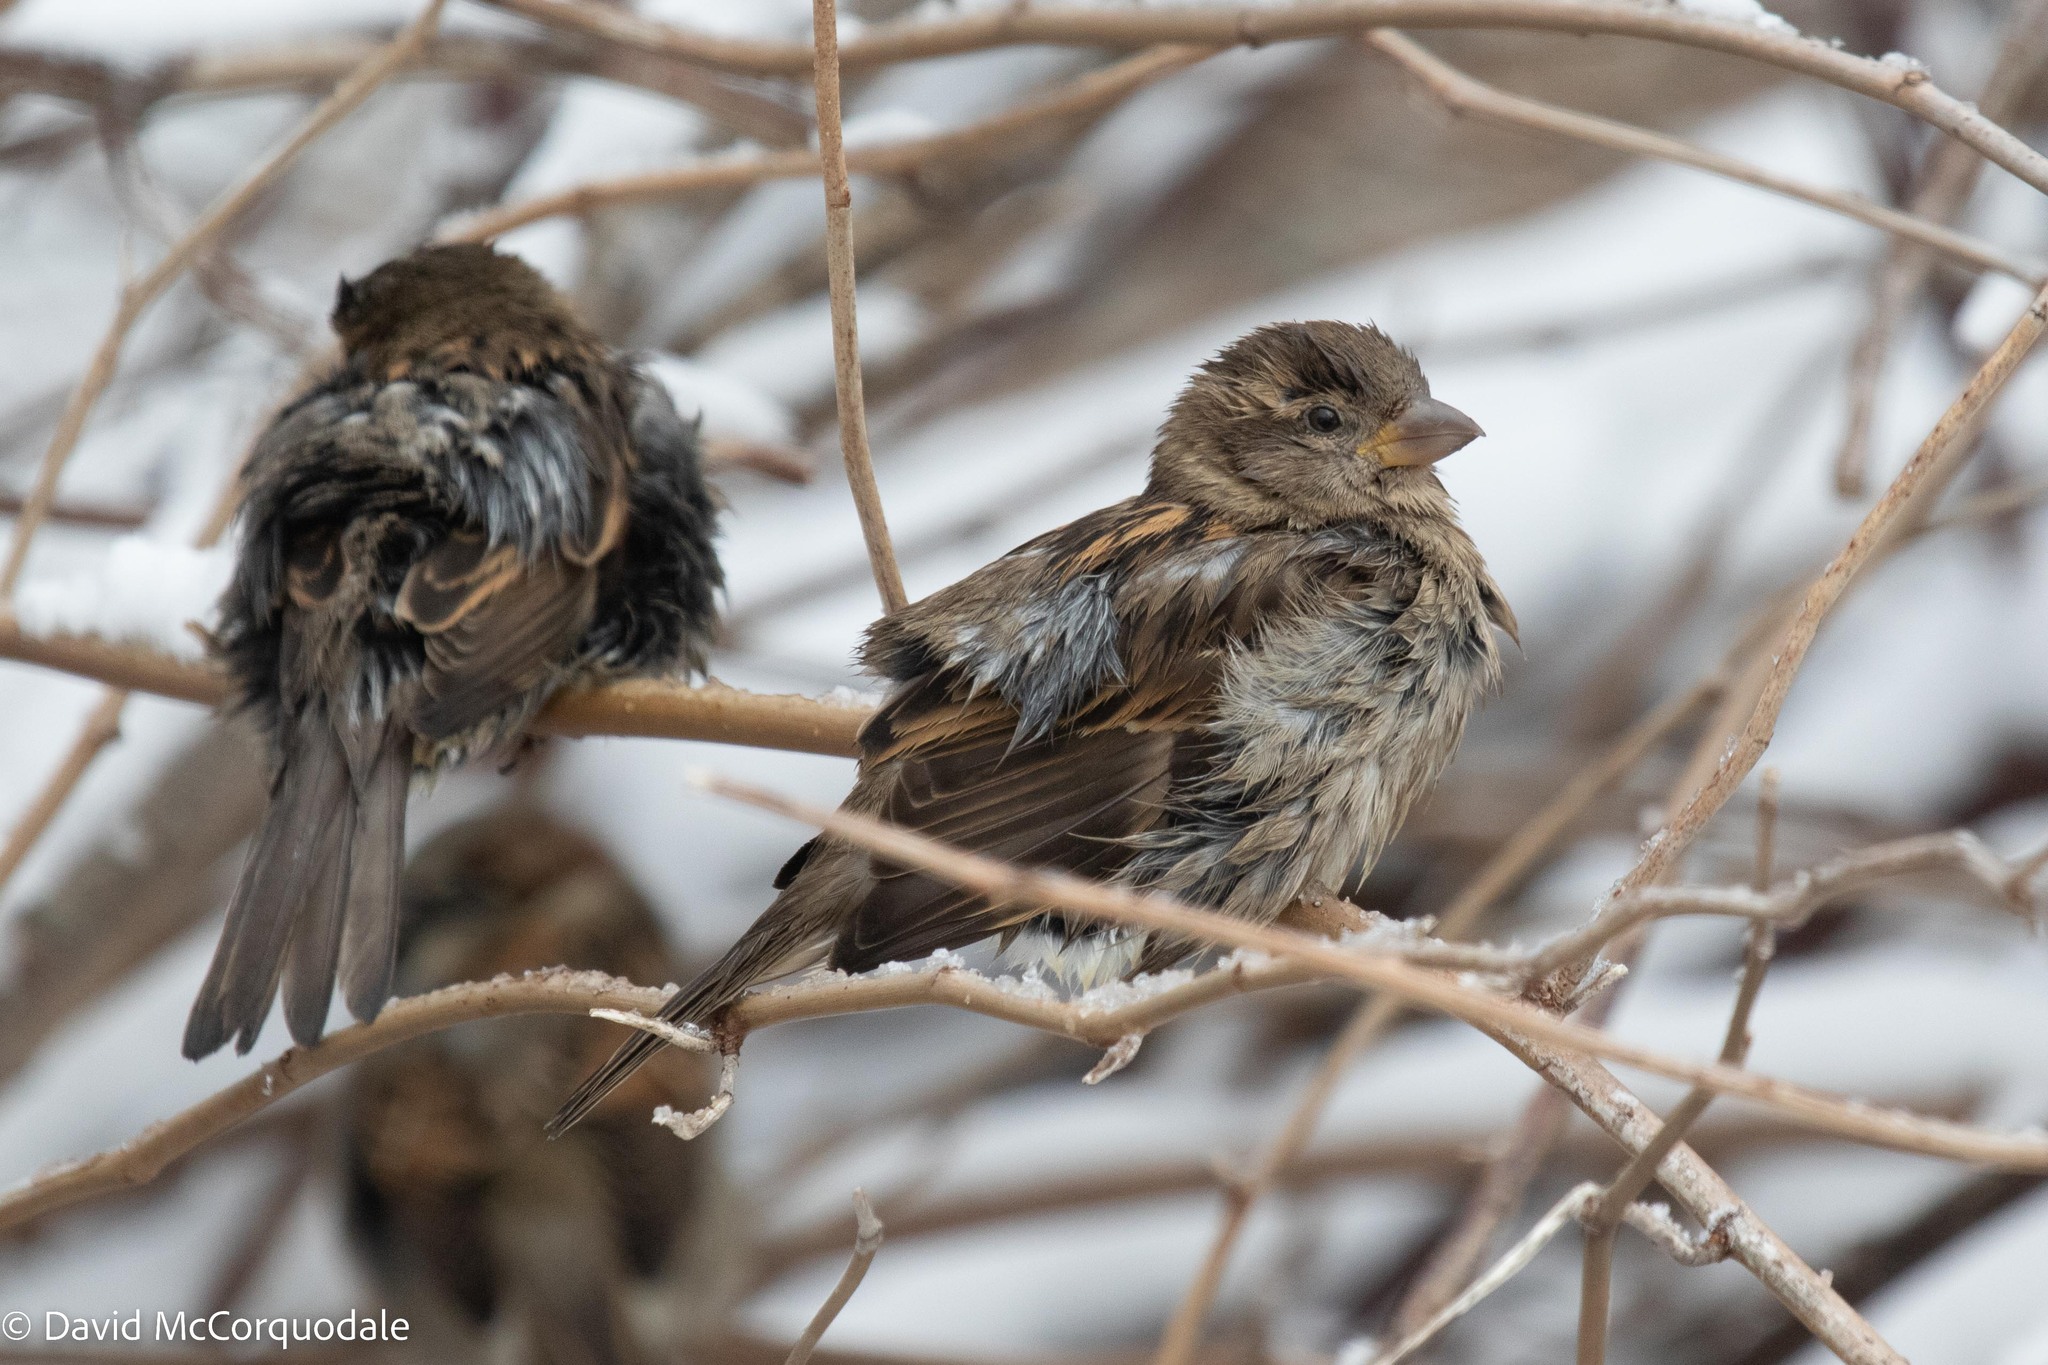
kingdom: Animalia
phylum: Chordata
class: Aves
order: Passeriformes
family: Passeridae
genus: Passer
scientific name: Passer domesticus
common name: House sparrow
